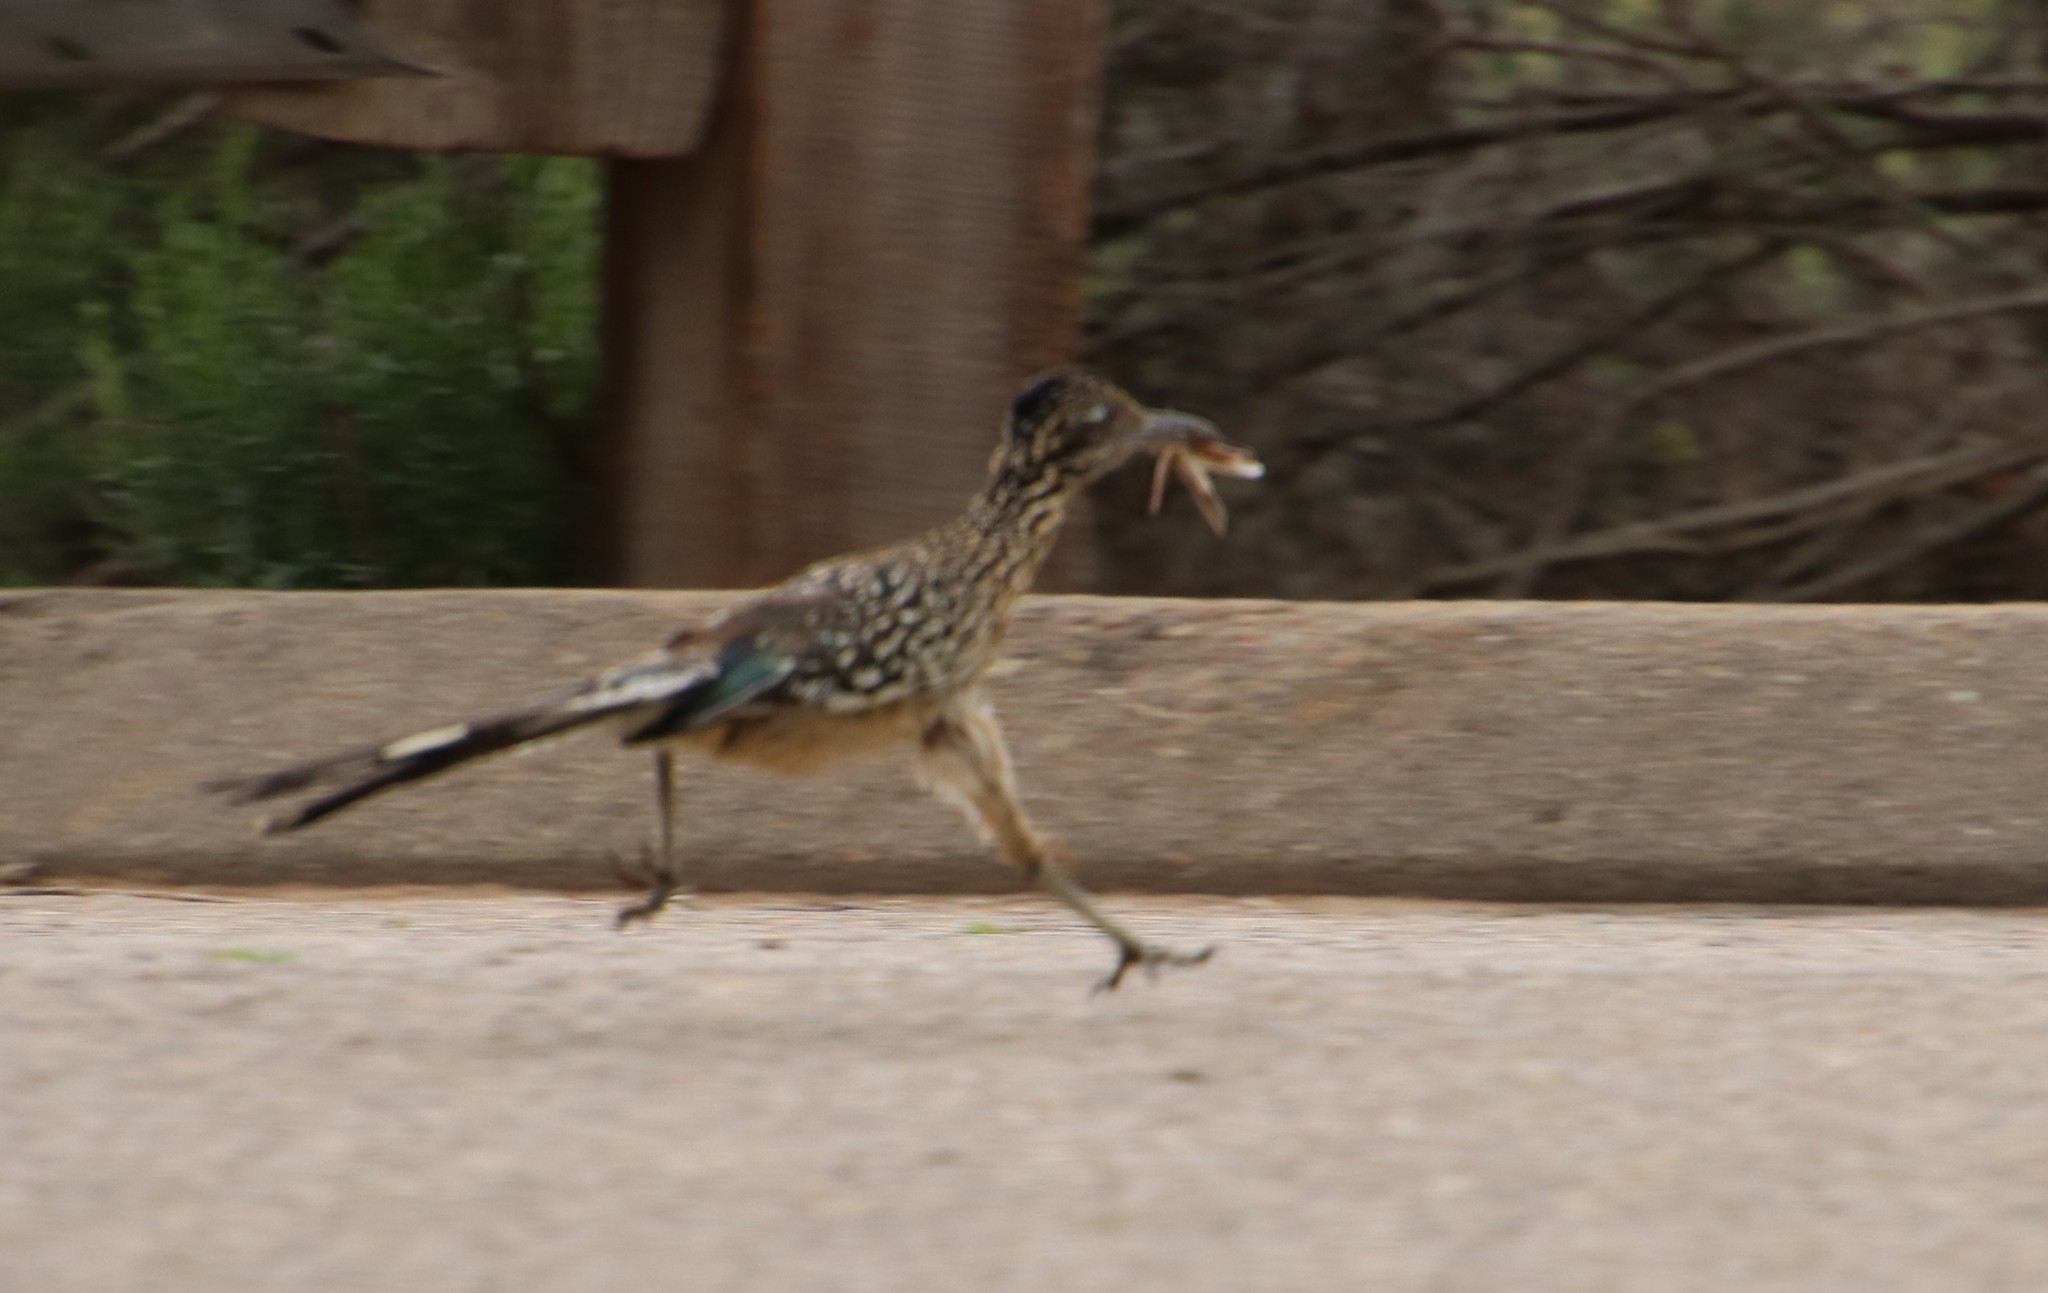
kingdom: Animalia
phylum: Chordata
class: Aves
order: Cuculiformes
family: Cuculidae
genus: Geococcyx
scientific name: Geococcyx californianus
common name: Greater roadrunner
